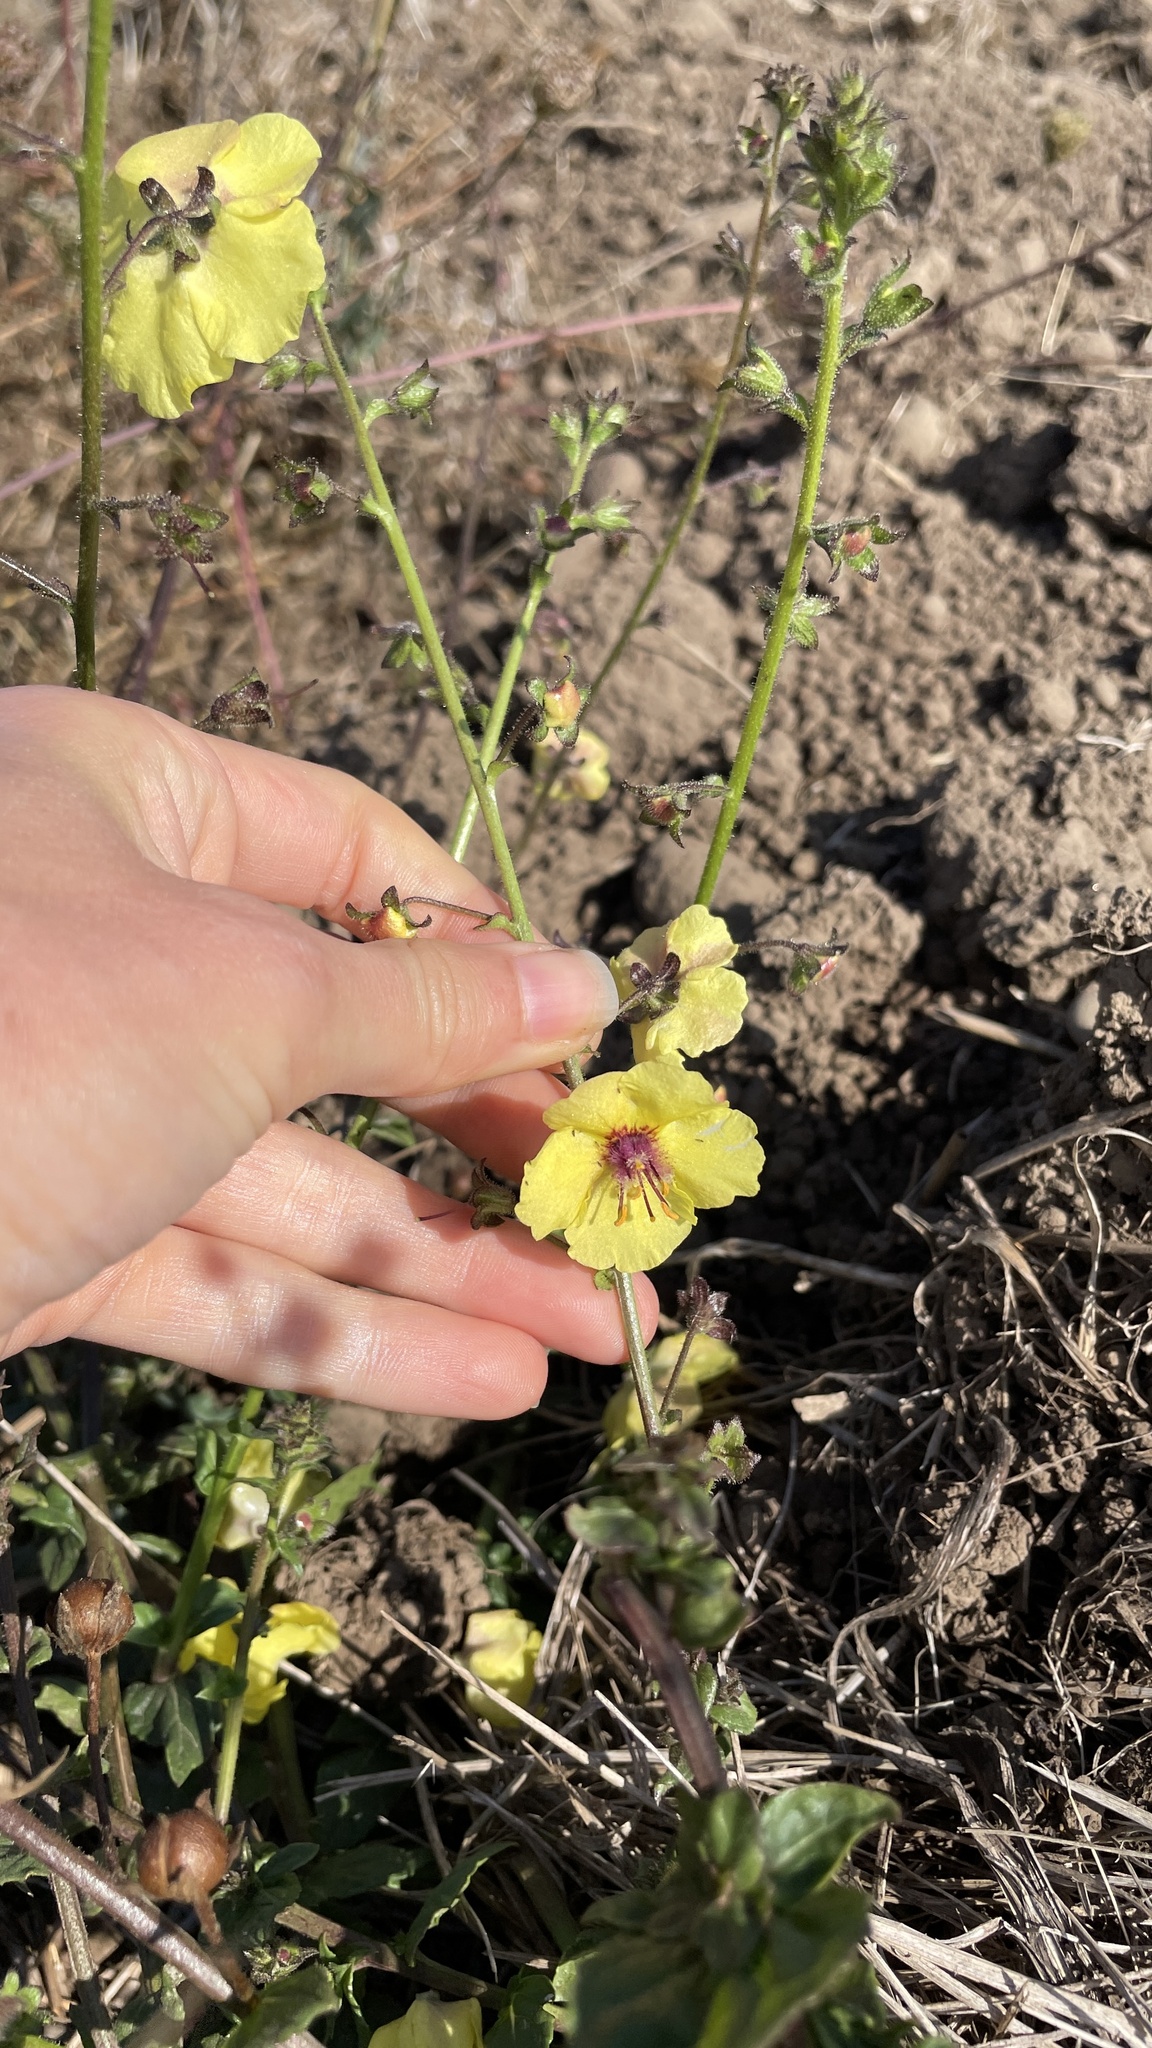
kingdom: Plantae
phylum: Tracheophyta
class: Magnoliopsida
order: Lamiales
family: Scrophulariaceae
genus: Verbascum
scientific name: Verbascum blattaria
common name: Moth mullein
